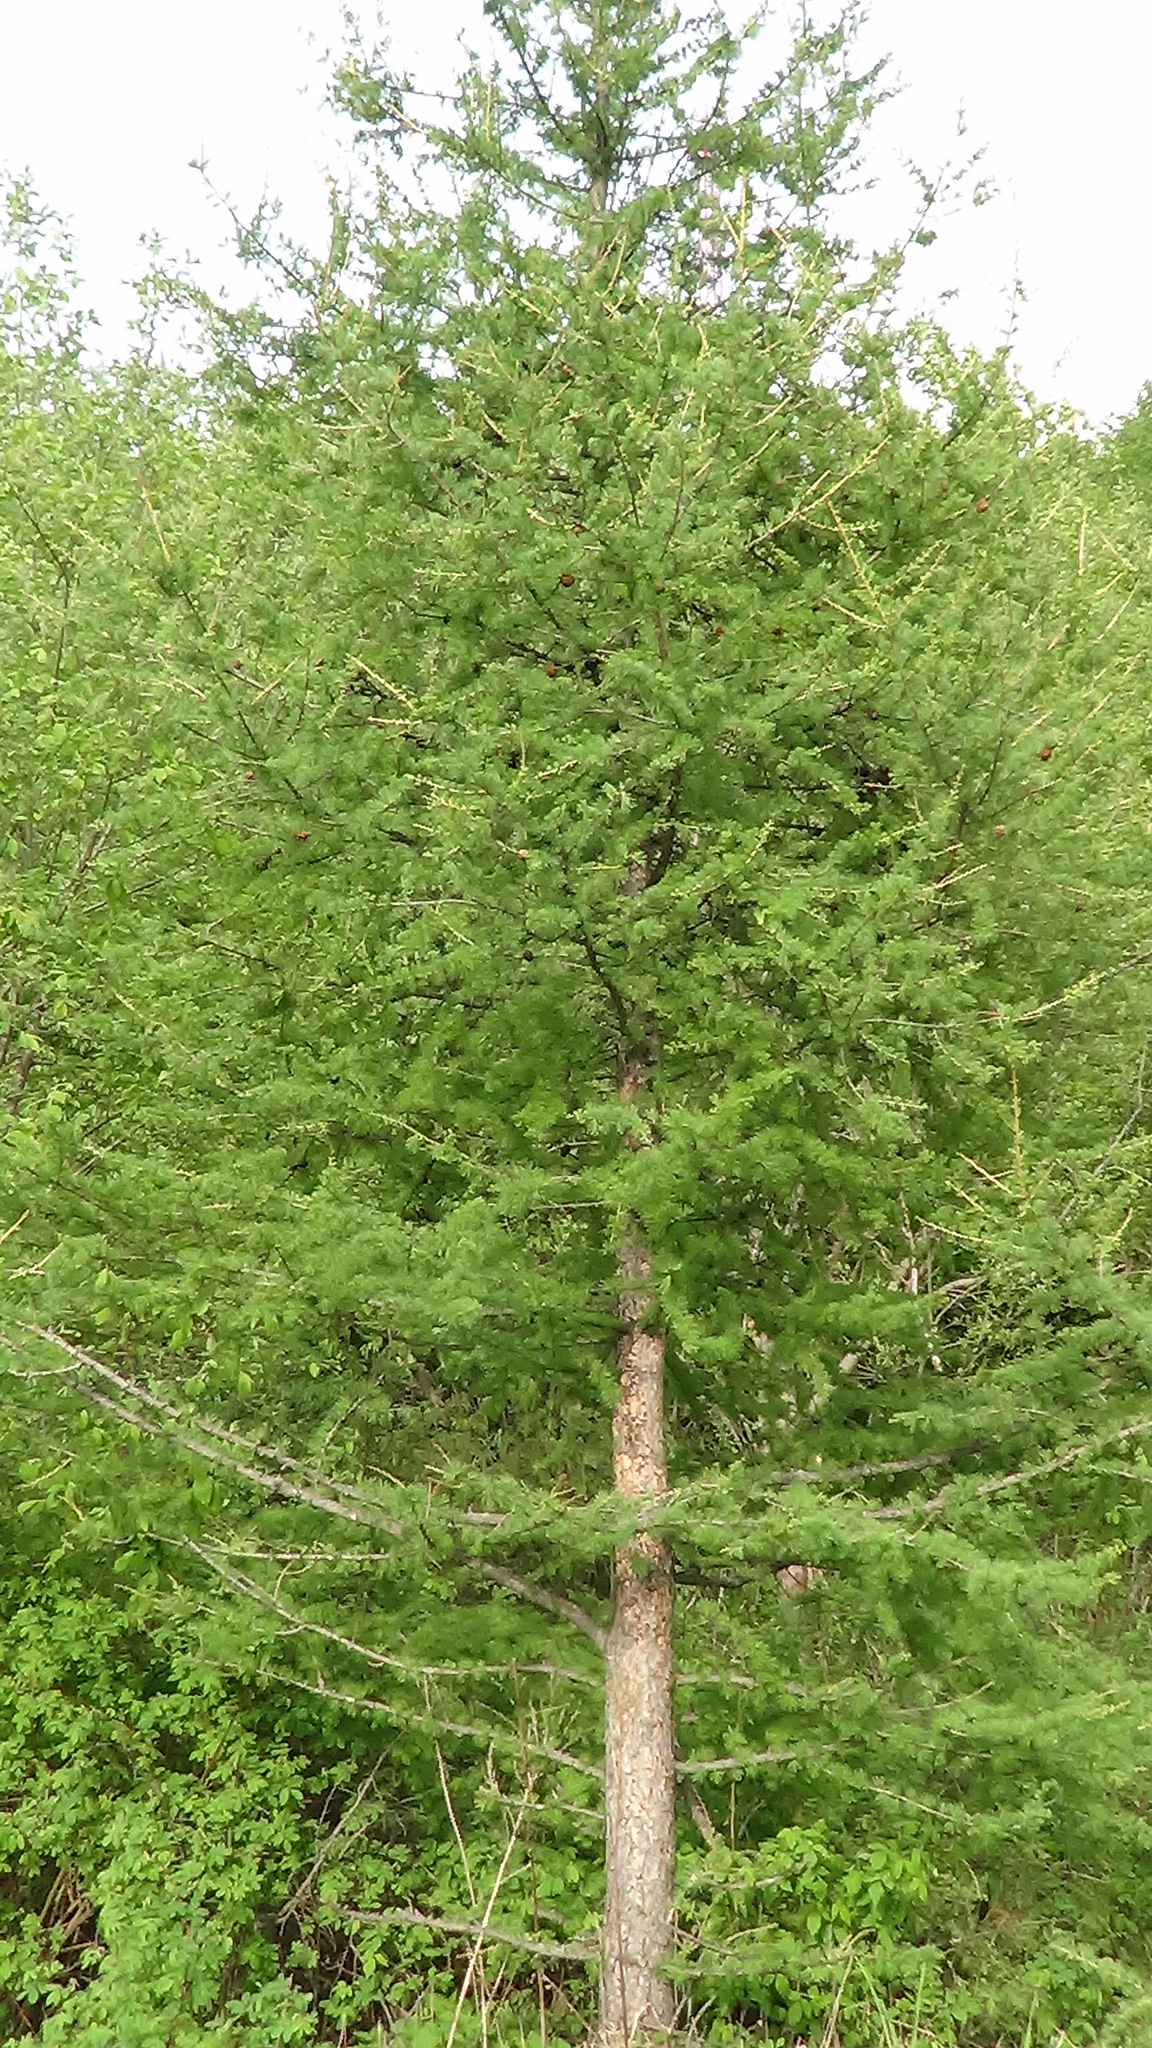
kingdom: Plantae
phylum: Tracheophyta
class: Pinopsida
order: Pinales
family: Pinaceae
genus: Larix
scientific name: Larix sibirica
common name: Siberian larch
